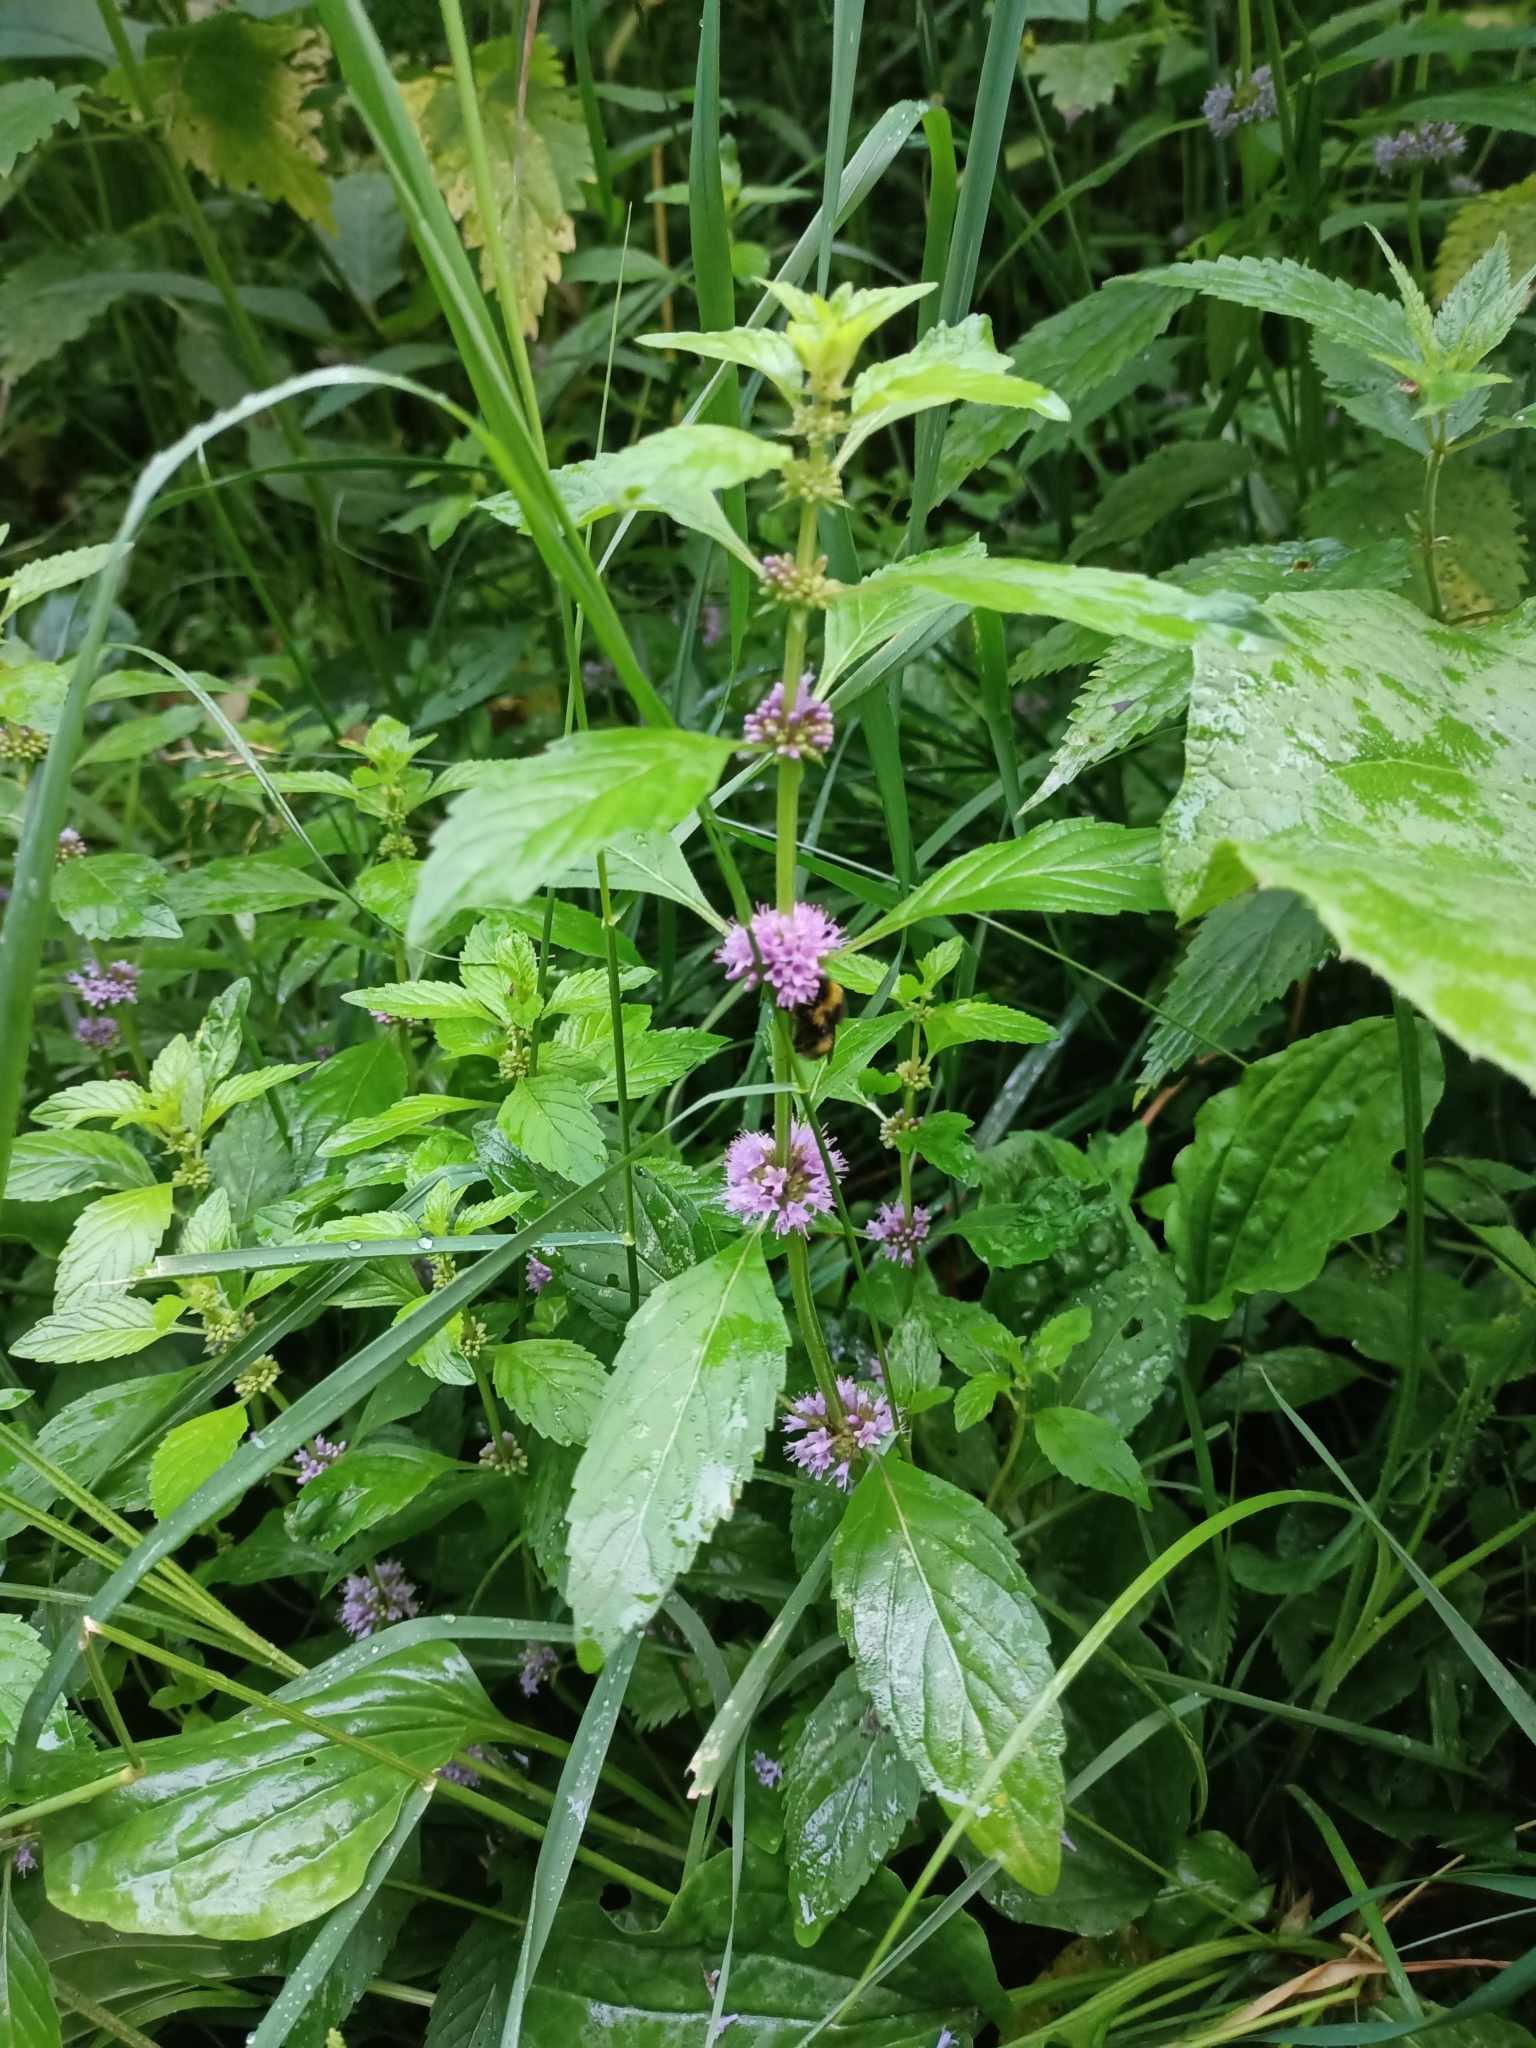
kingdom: Plantae
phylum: Tracheophyta
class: Magnoliopsida
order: Lamiales
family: Lamiaceae
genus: Mentha
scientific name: Mentha arvensis
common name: Corn mint
